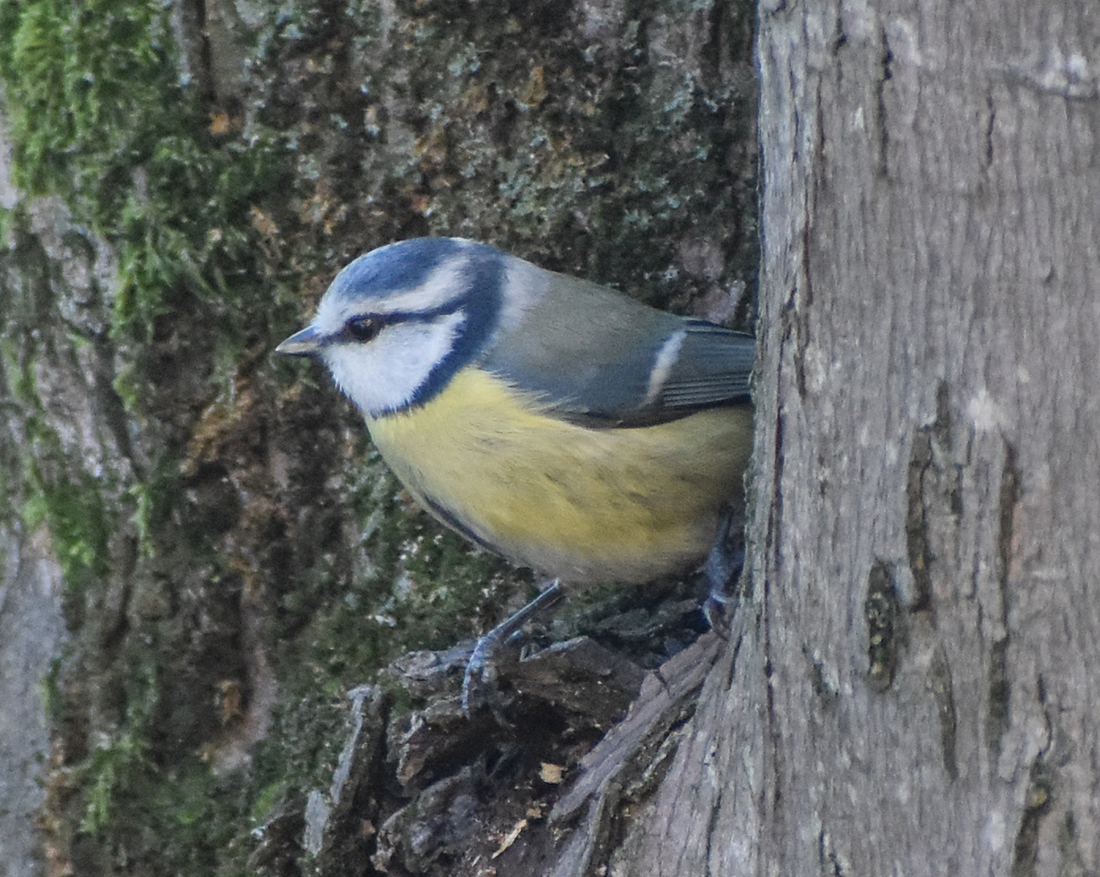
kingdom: Animalia
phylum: Chordata
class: Aves
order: Passeriformes
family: Paridae
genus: Cyanistes
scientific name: Cyanistes caeruleus
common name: Eurasian blue tit
